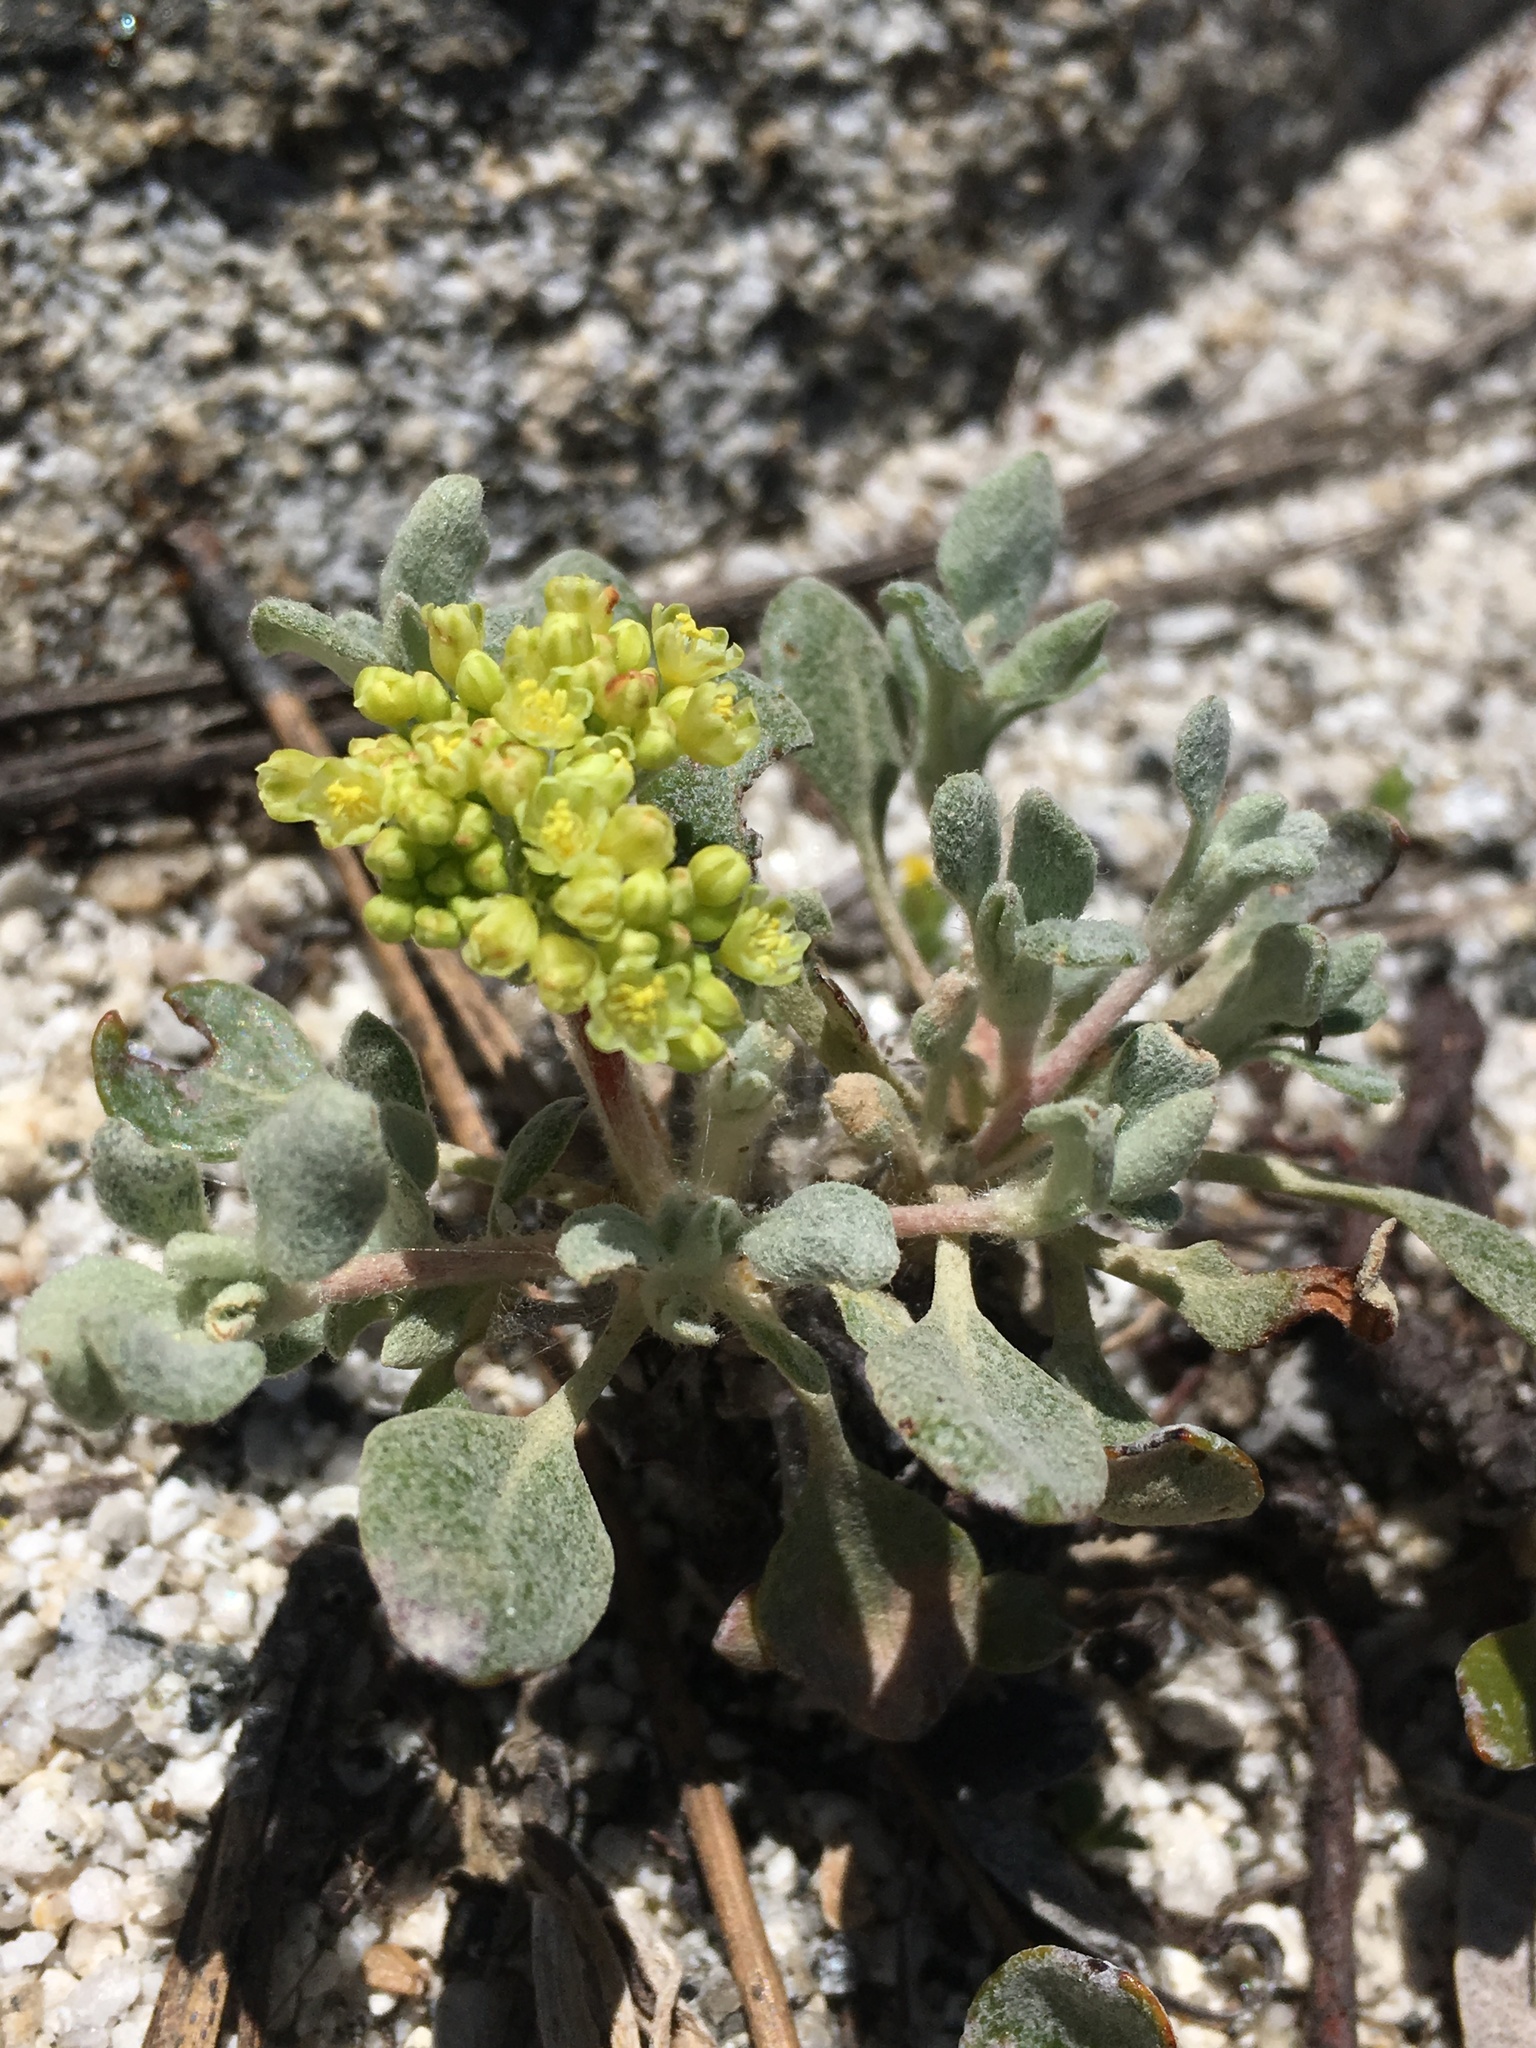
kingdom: Plantae
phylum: Tracheophyta
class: Magnoliopsida
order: Caryophyllales
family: Polygonaceae
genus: Eriogonum
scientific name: Eriogonum incanum
